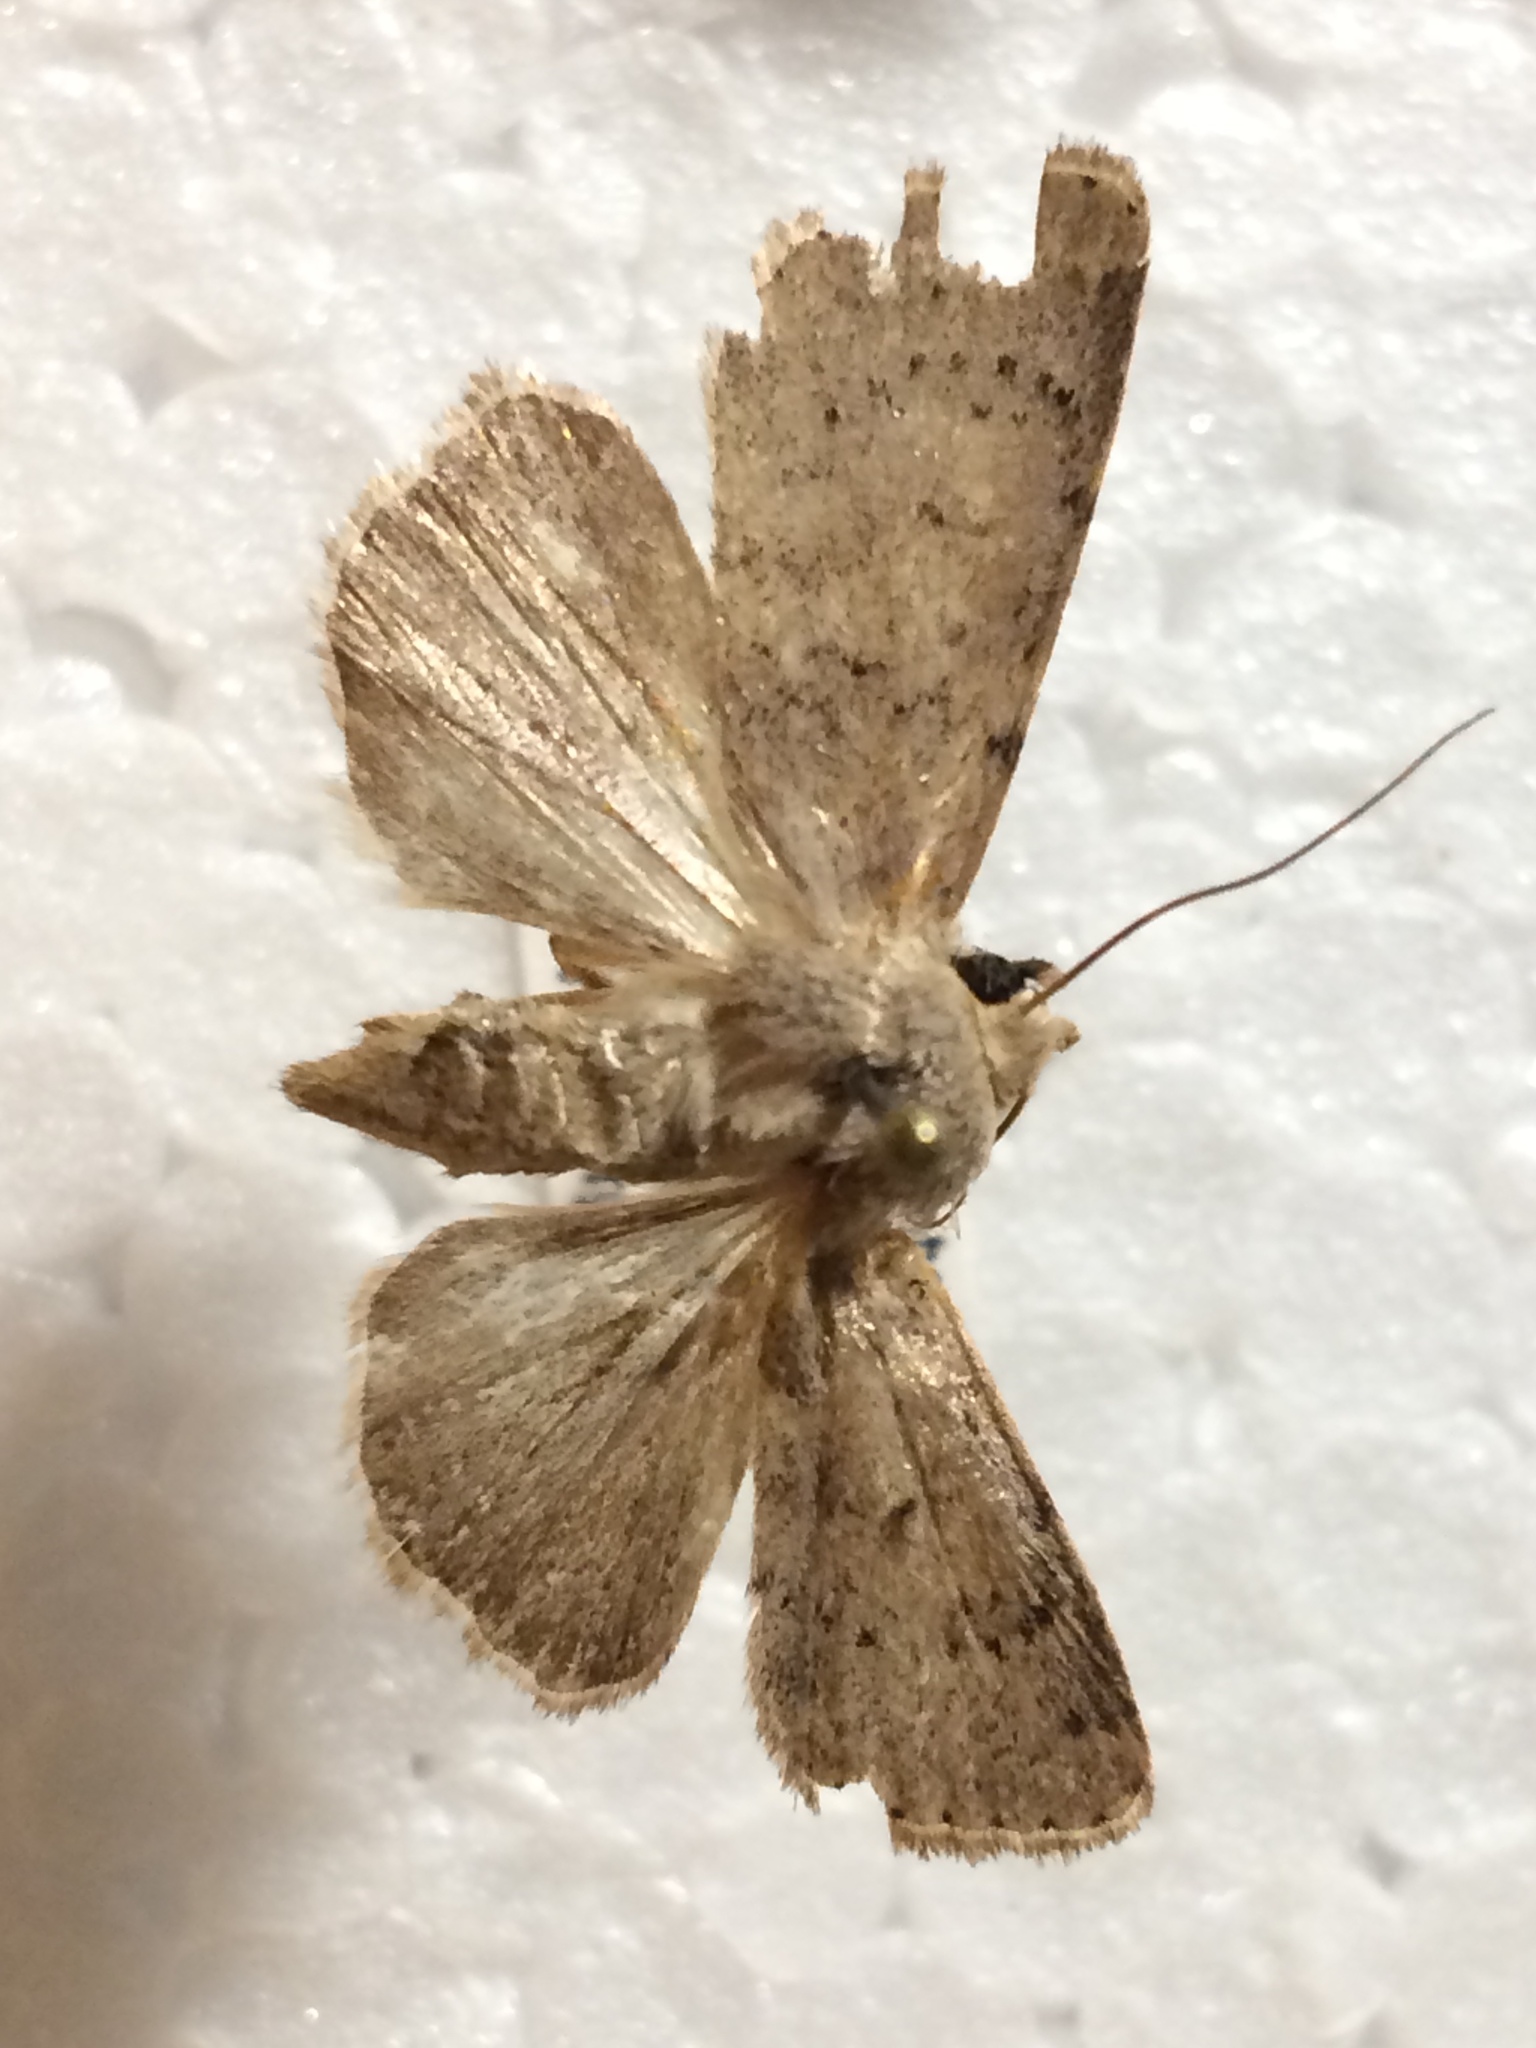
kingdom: Animalia
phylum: Arthropoda
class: Insecta
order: Lepidoptera
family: Noctuidae
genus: Hoplodrina
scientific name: Hoplodrina respersa
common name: Sprinkled rustic
